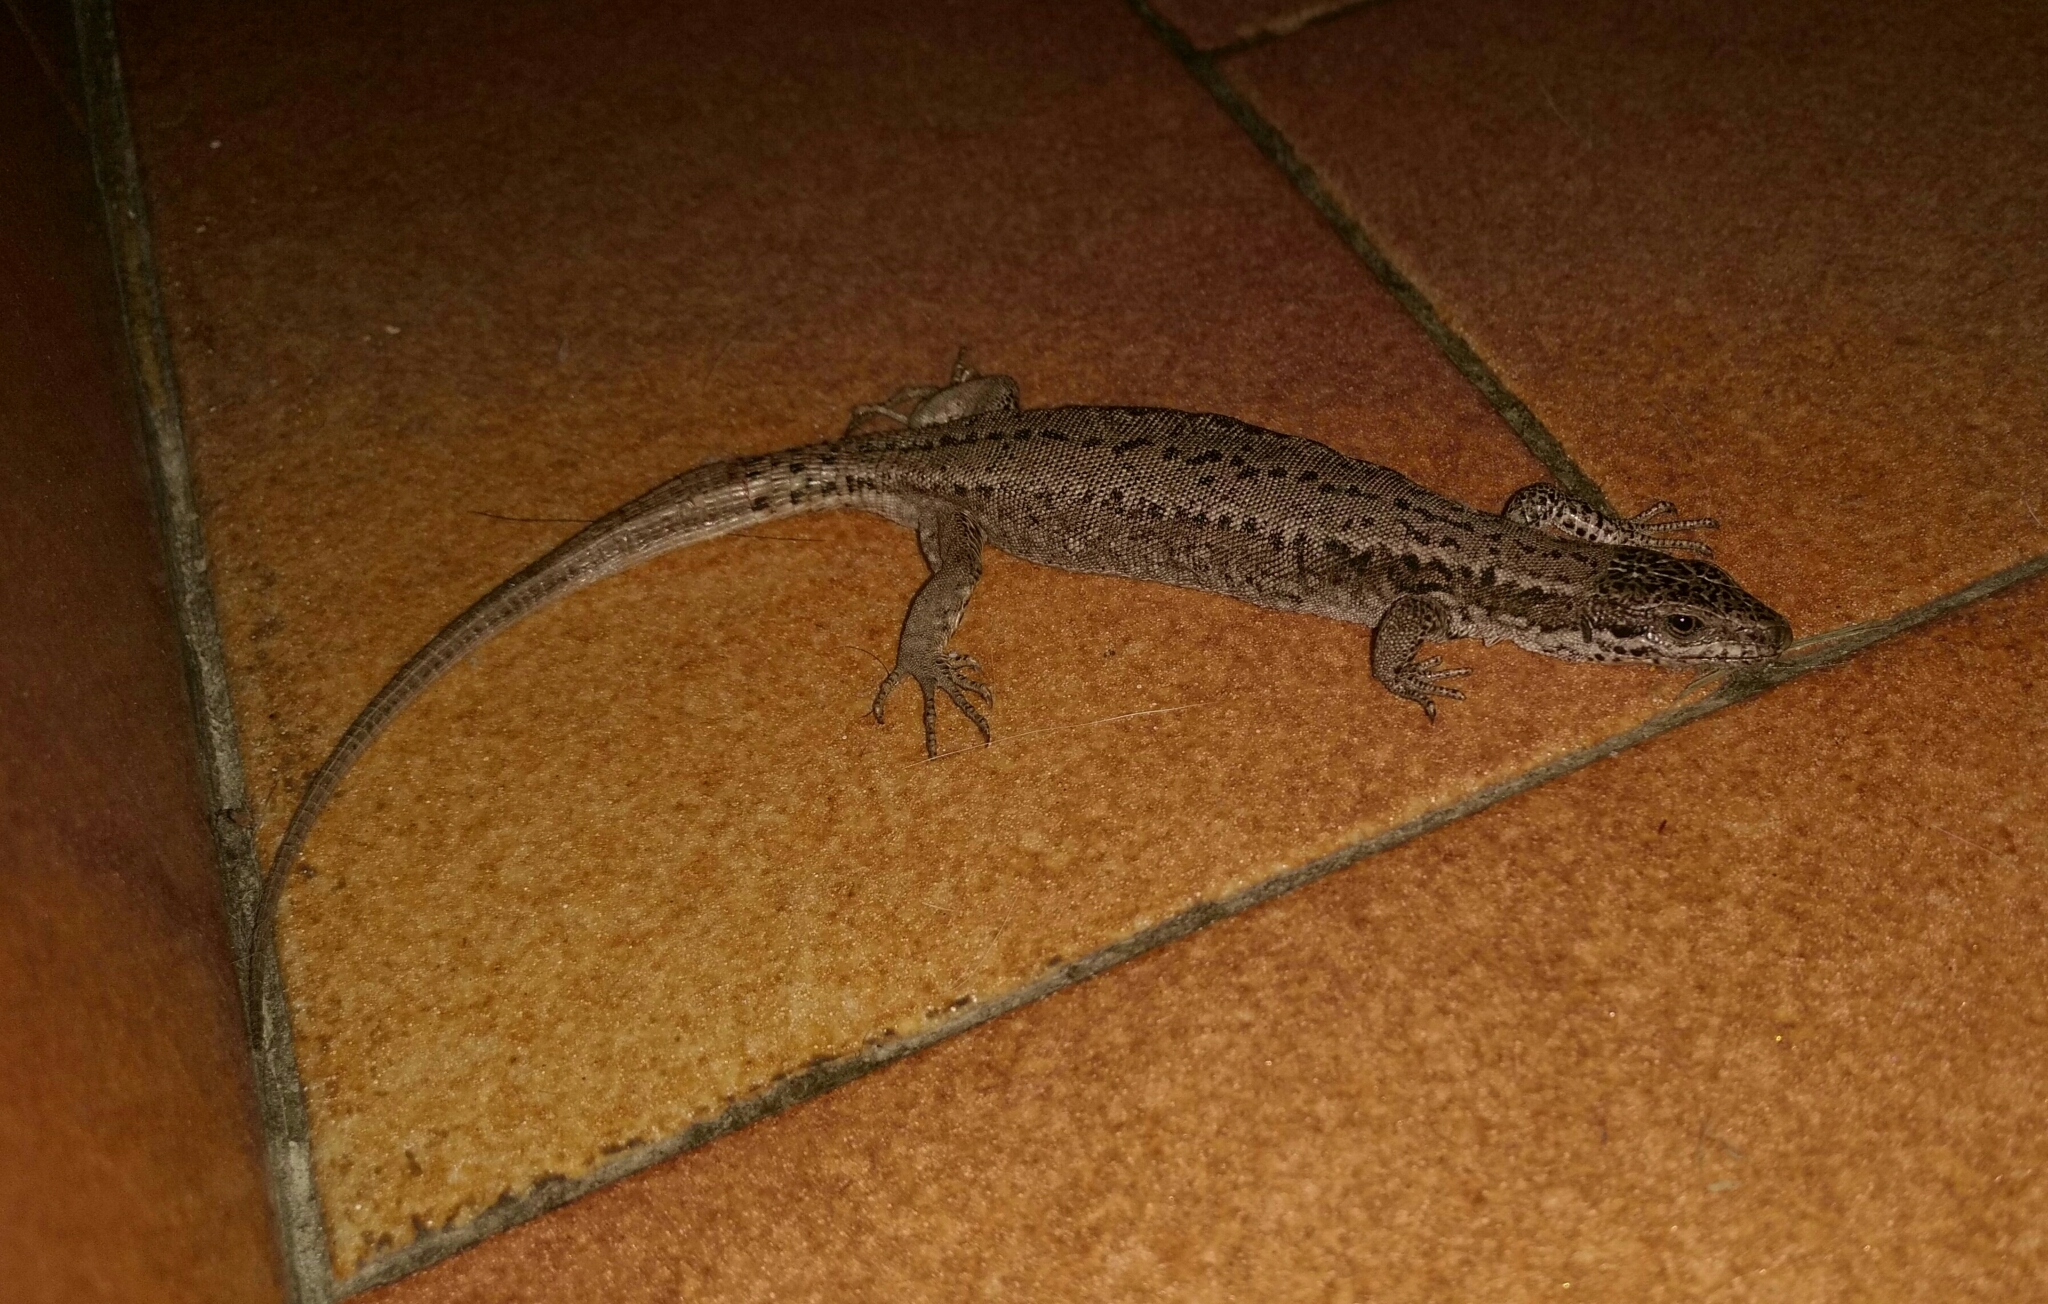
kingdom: Animalia
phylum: Chordata
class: Squamata
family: Lacertidae
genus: Podarcis
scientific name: Podarcis muralis
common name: Common wall lizard
